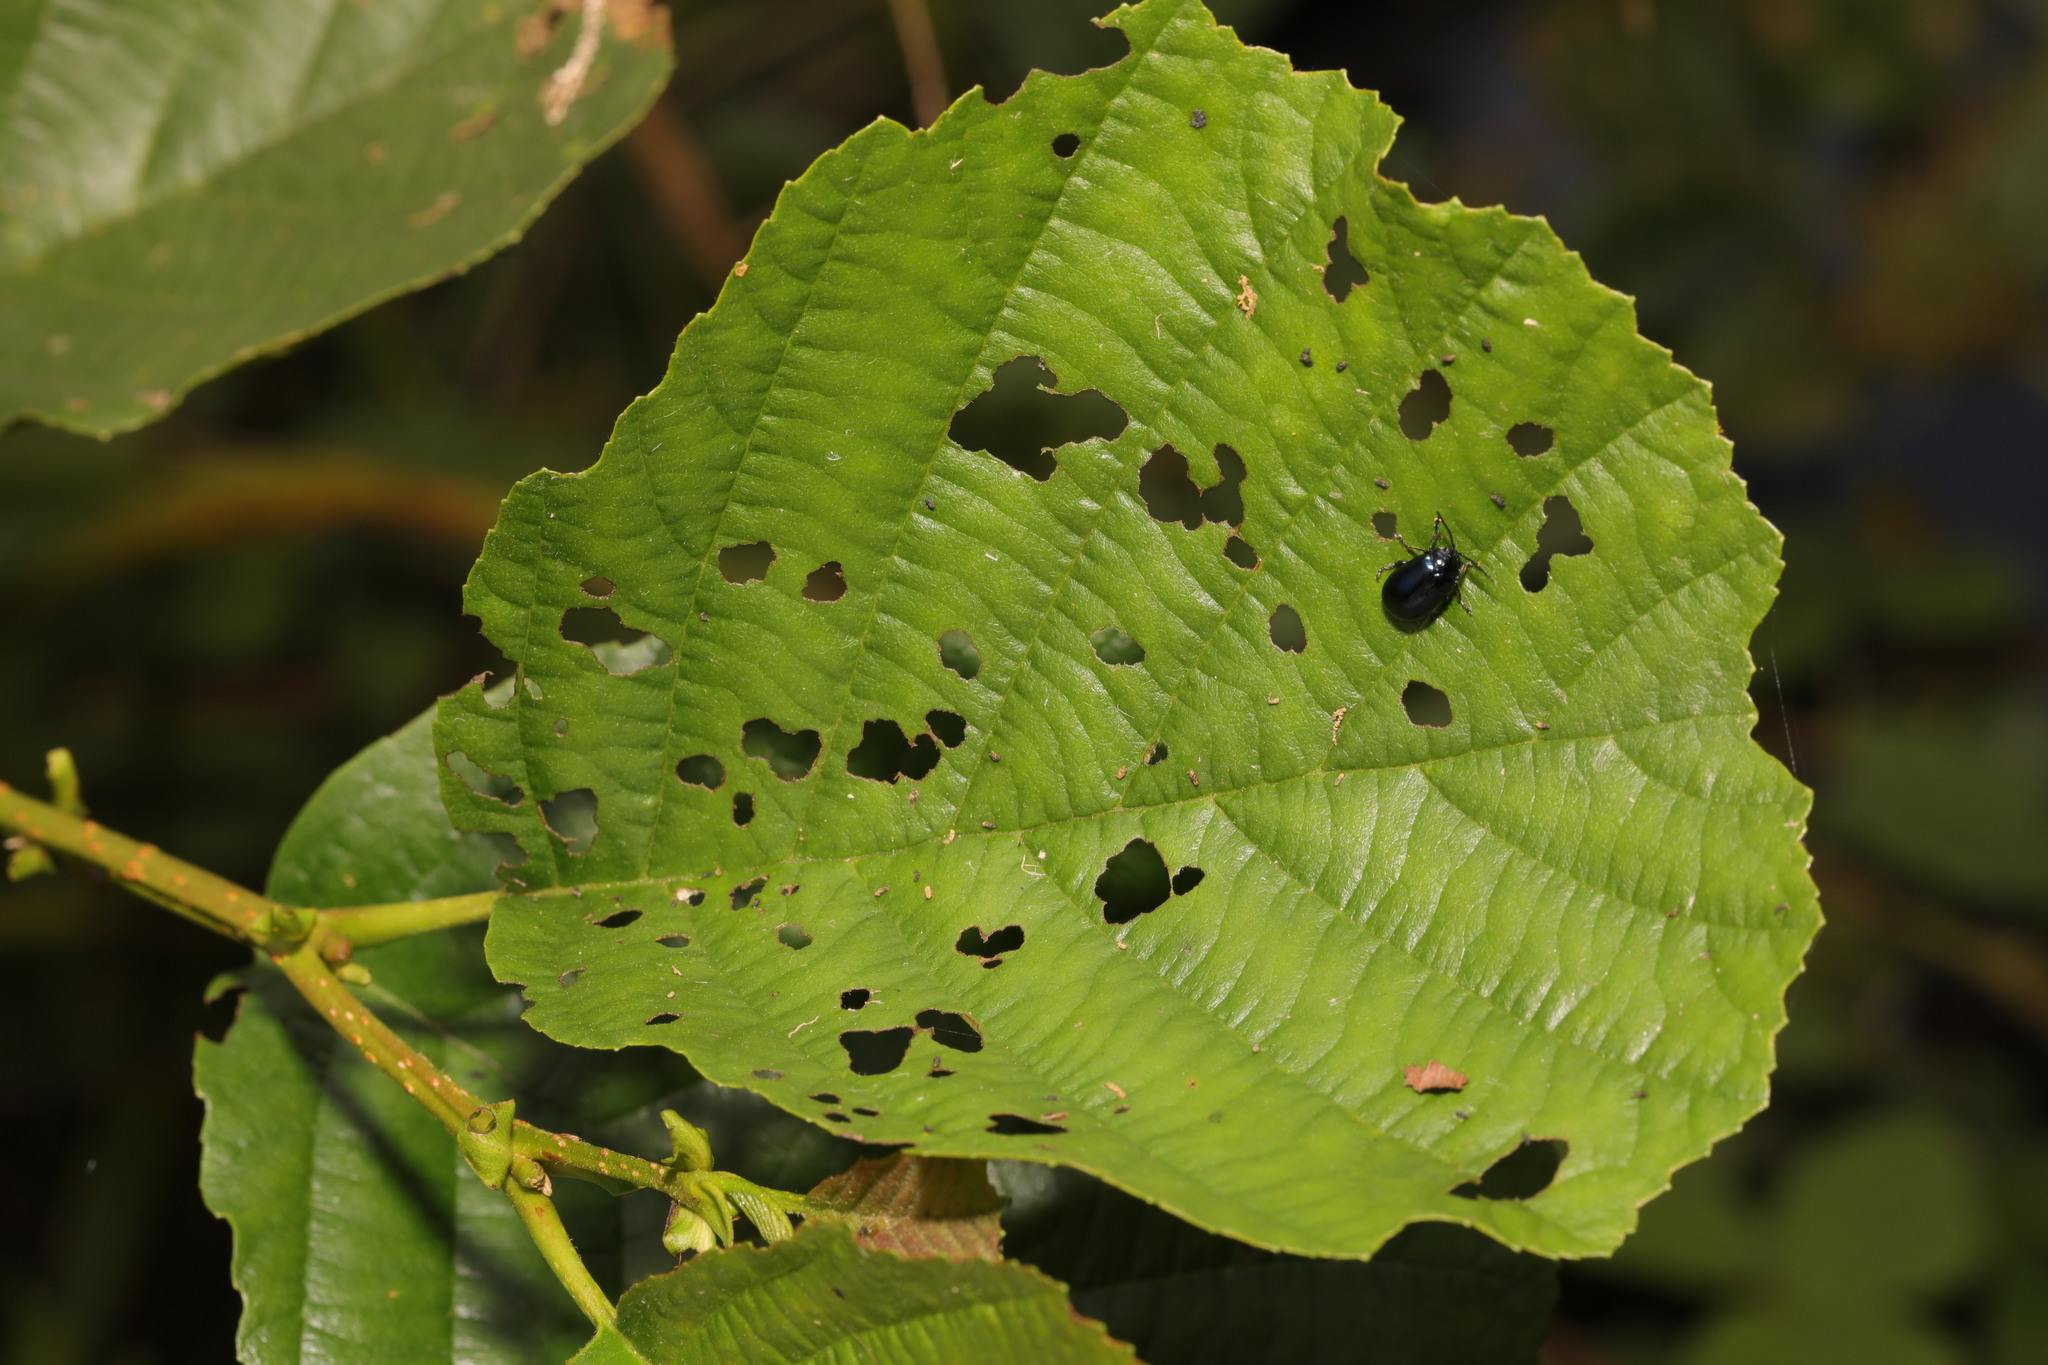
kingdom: Plantae
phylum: Tracheophyta
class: Magnoliopsida
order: Fagales
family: Betulaceae
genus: Alnus
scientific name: Alnus glutinosa
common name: Black alder
